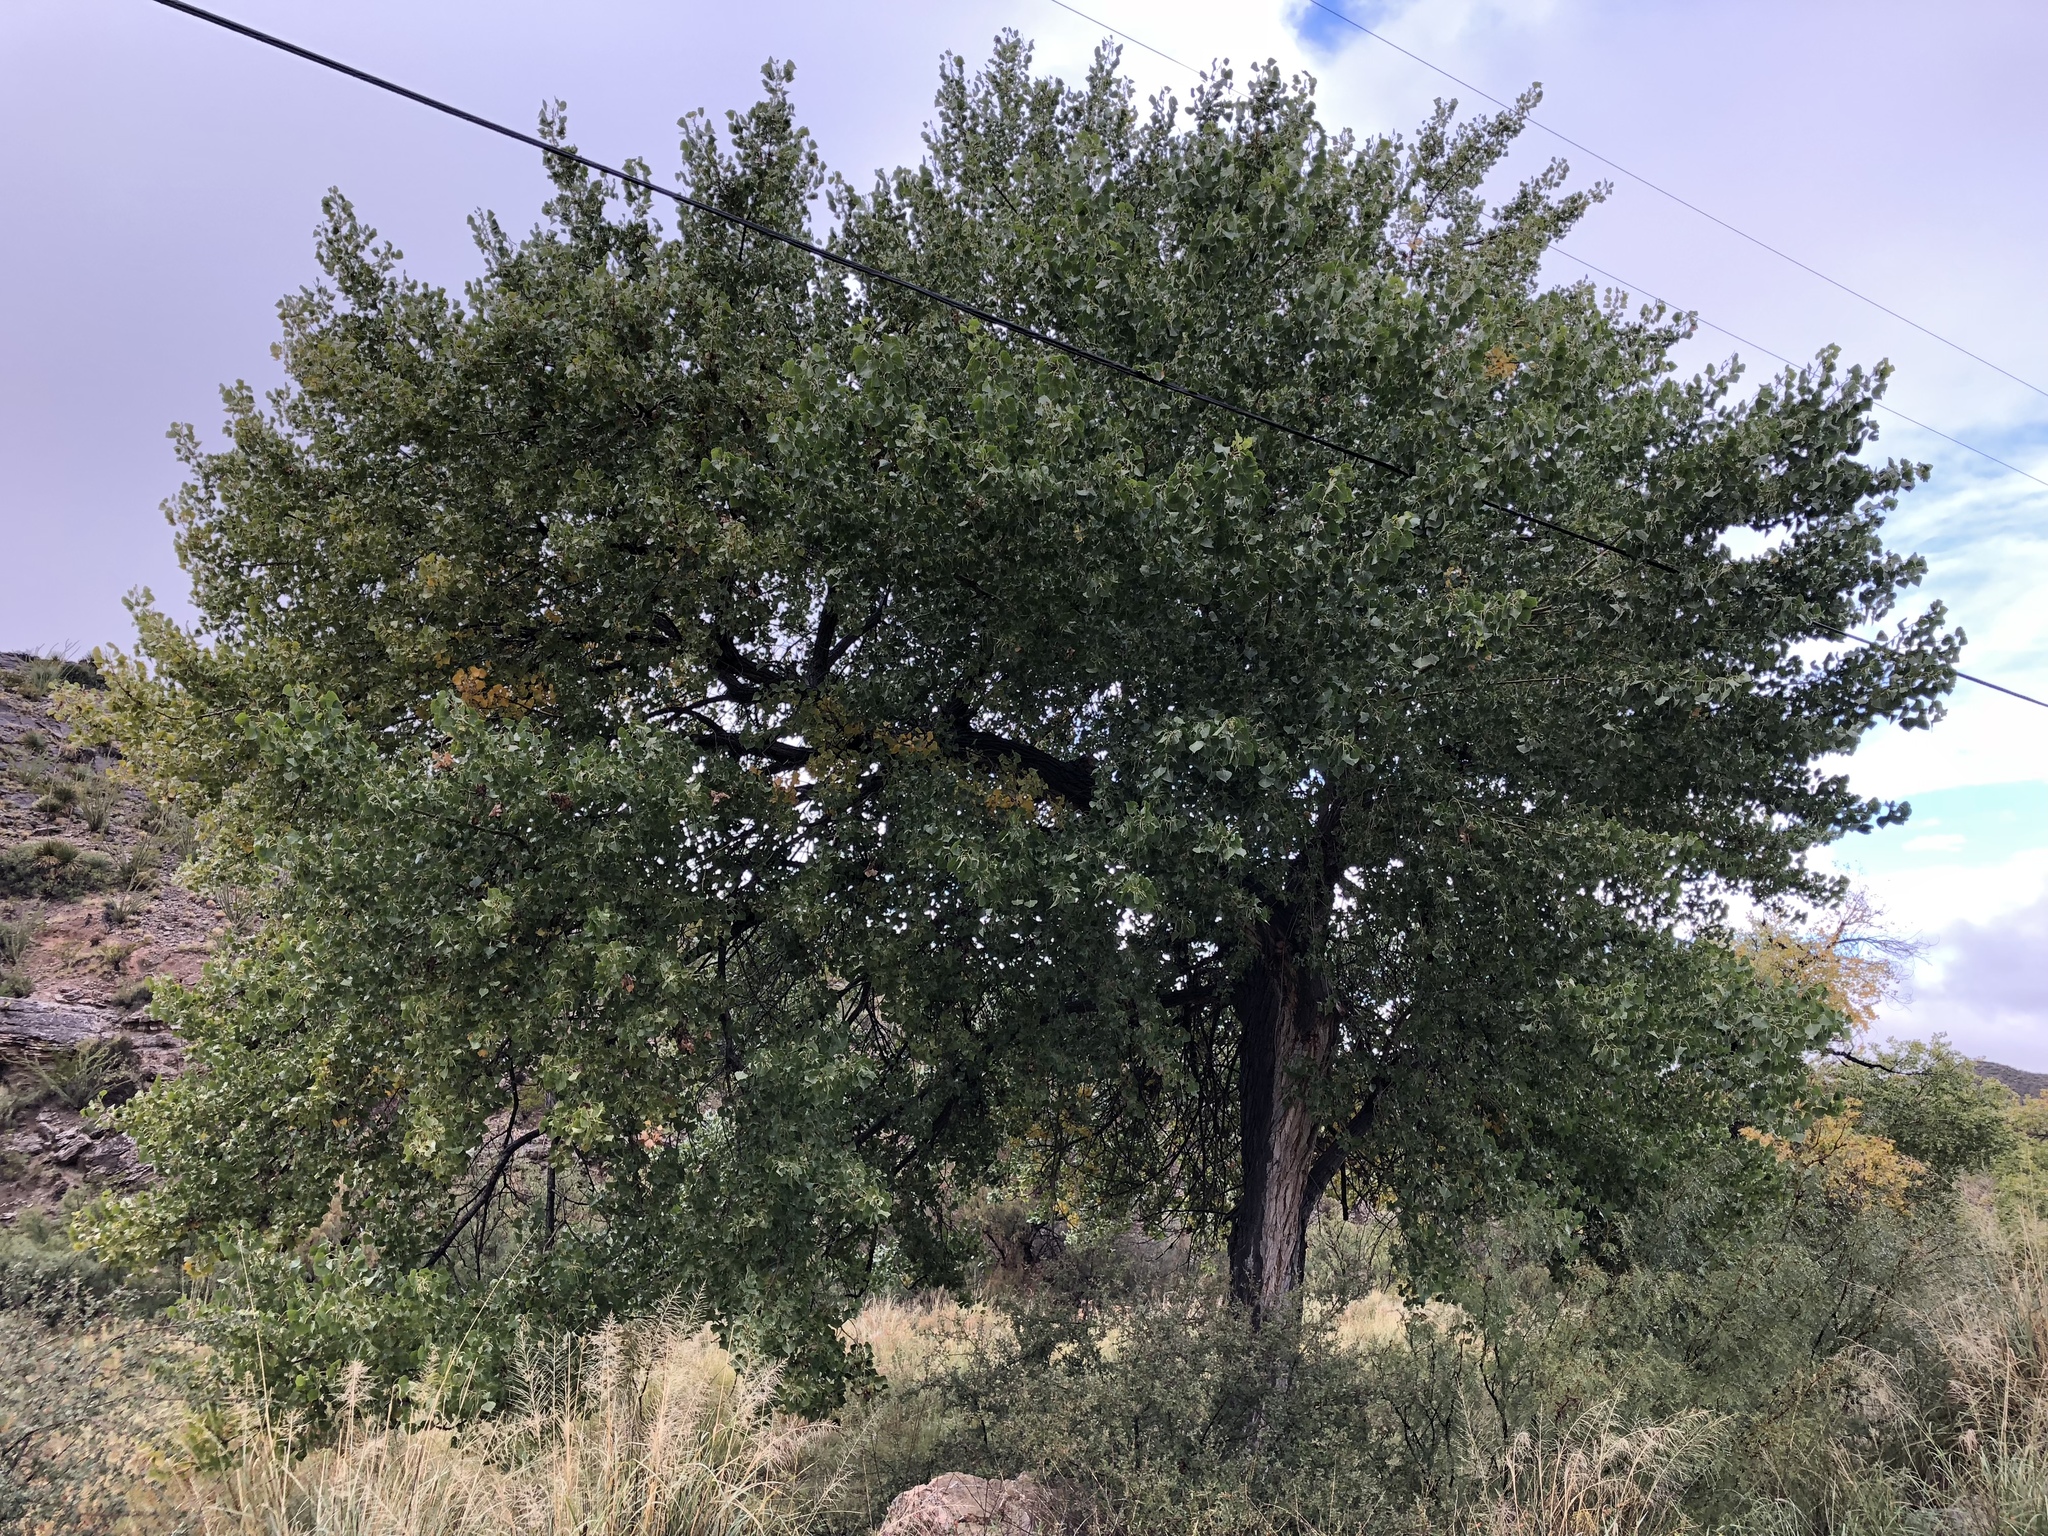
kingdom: Plantae
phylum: Tracheophyta
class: Magnoliopsida
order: Malpighiales
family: Salicaceae
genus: Populus
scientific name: Populus fremontii
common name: Fremont's cottonwood
